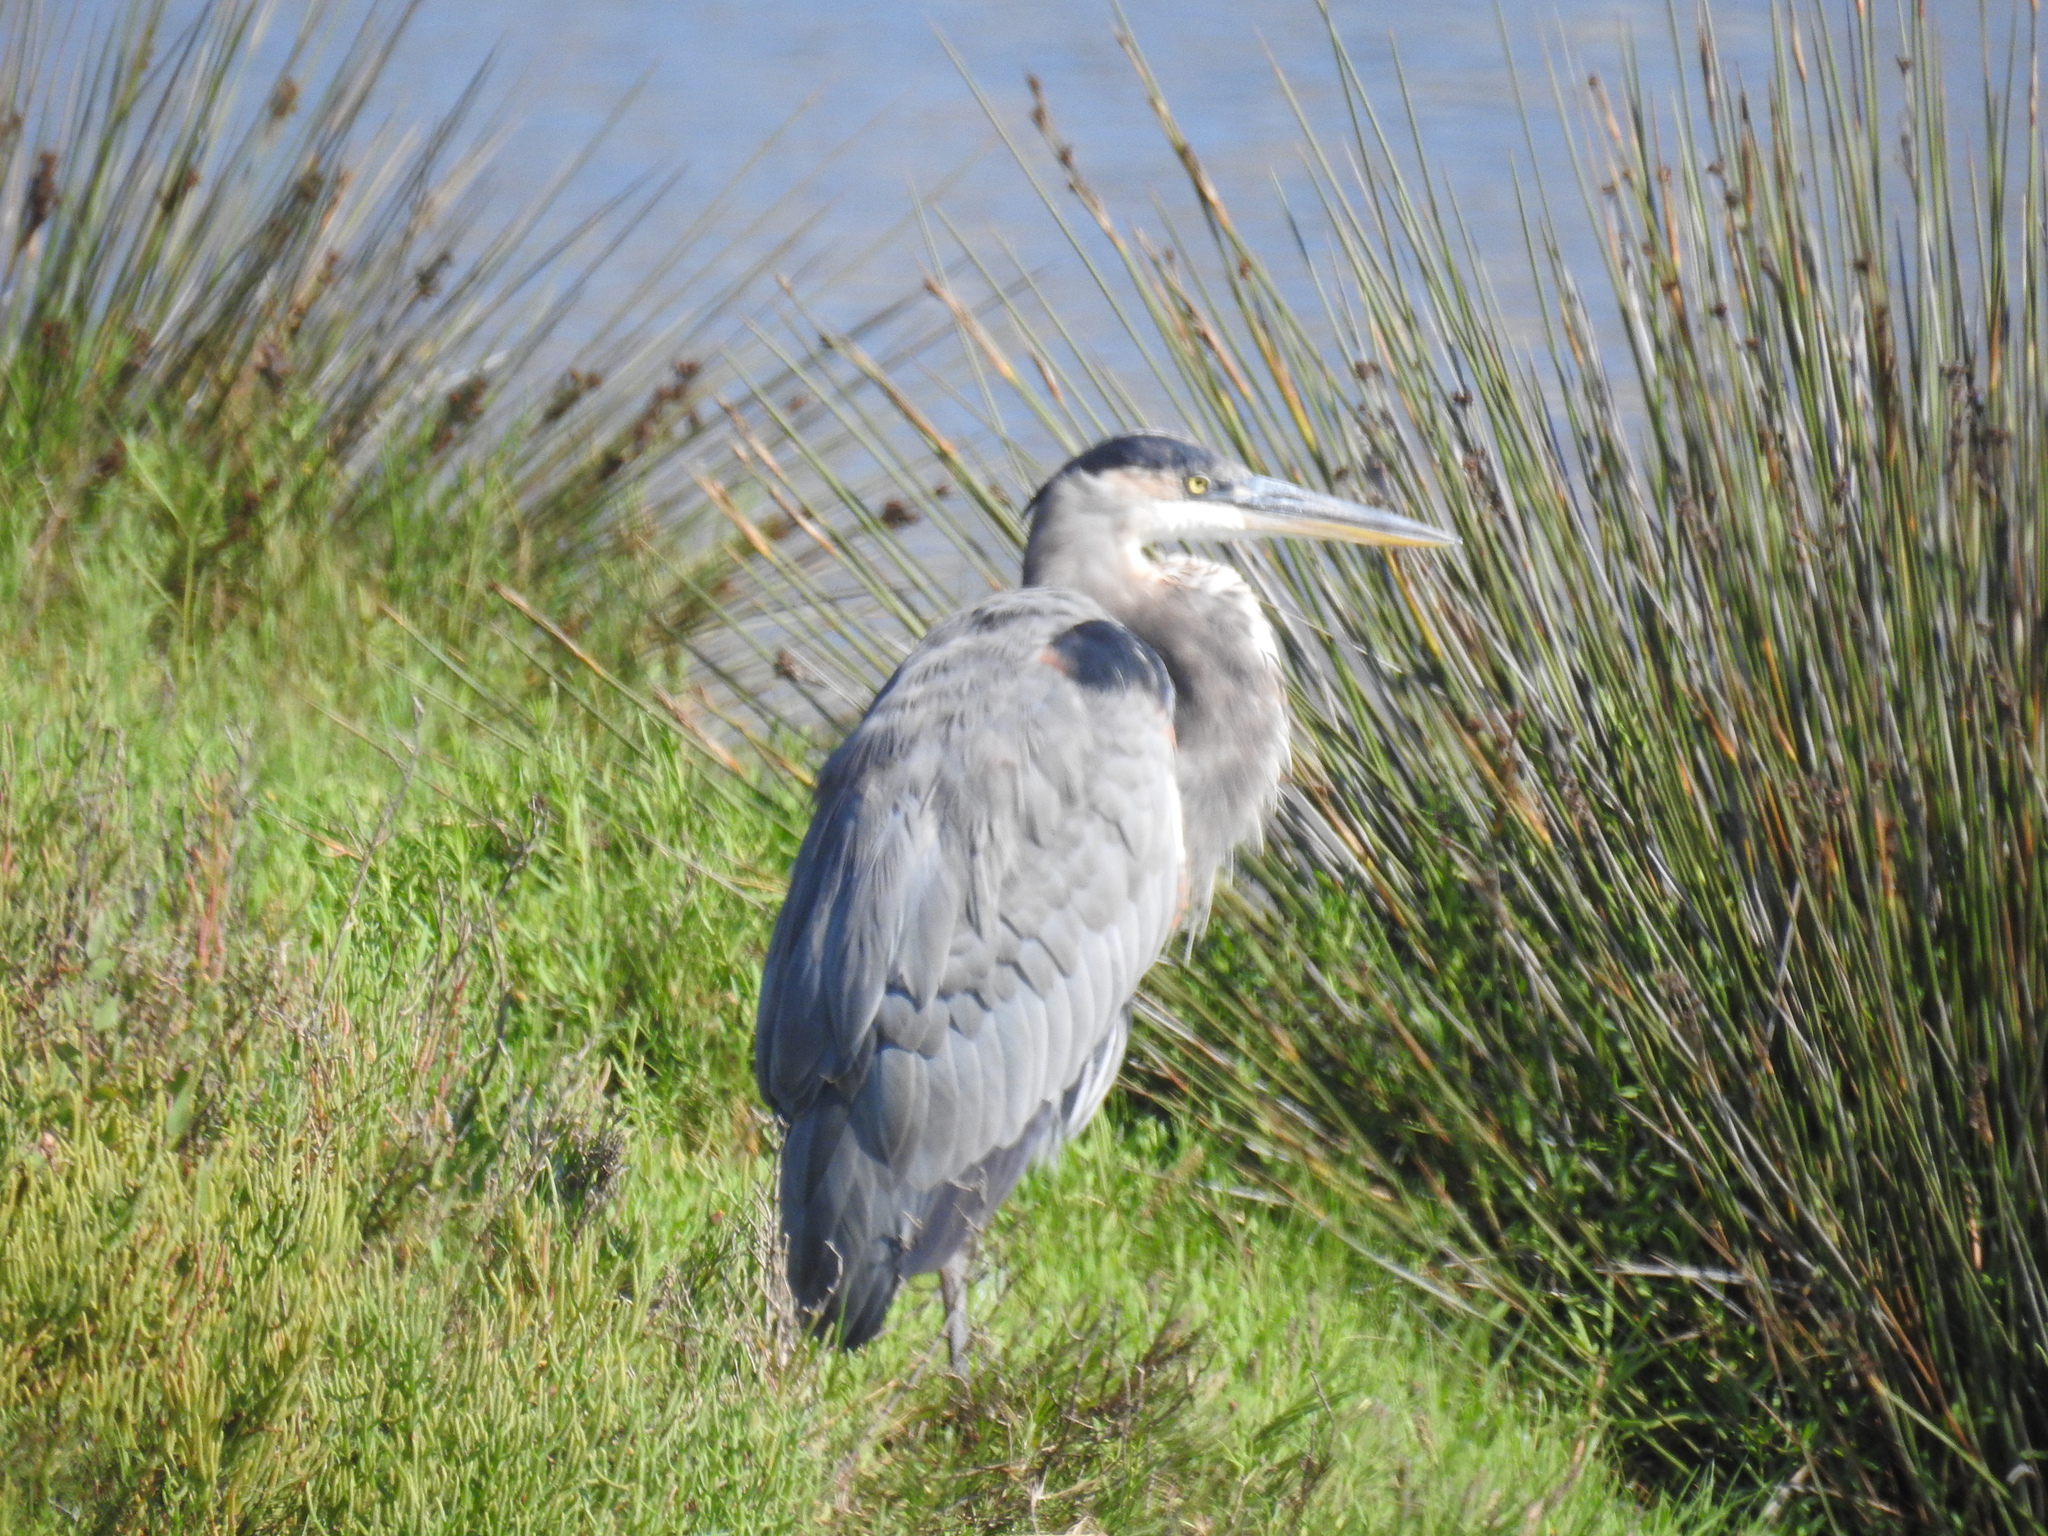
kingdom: Animalia
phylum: Chordata
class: Aves
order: Pelecaniformes
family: Ardeidae
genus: Ardea
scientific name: Ardea herodias
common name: Great blue heron
